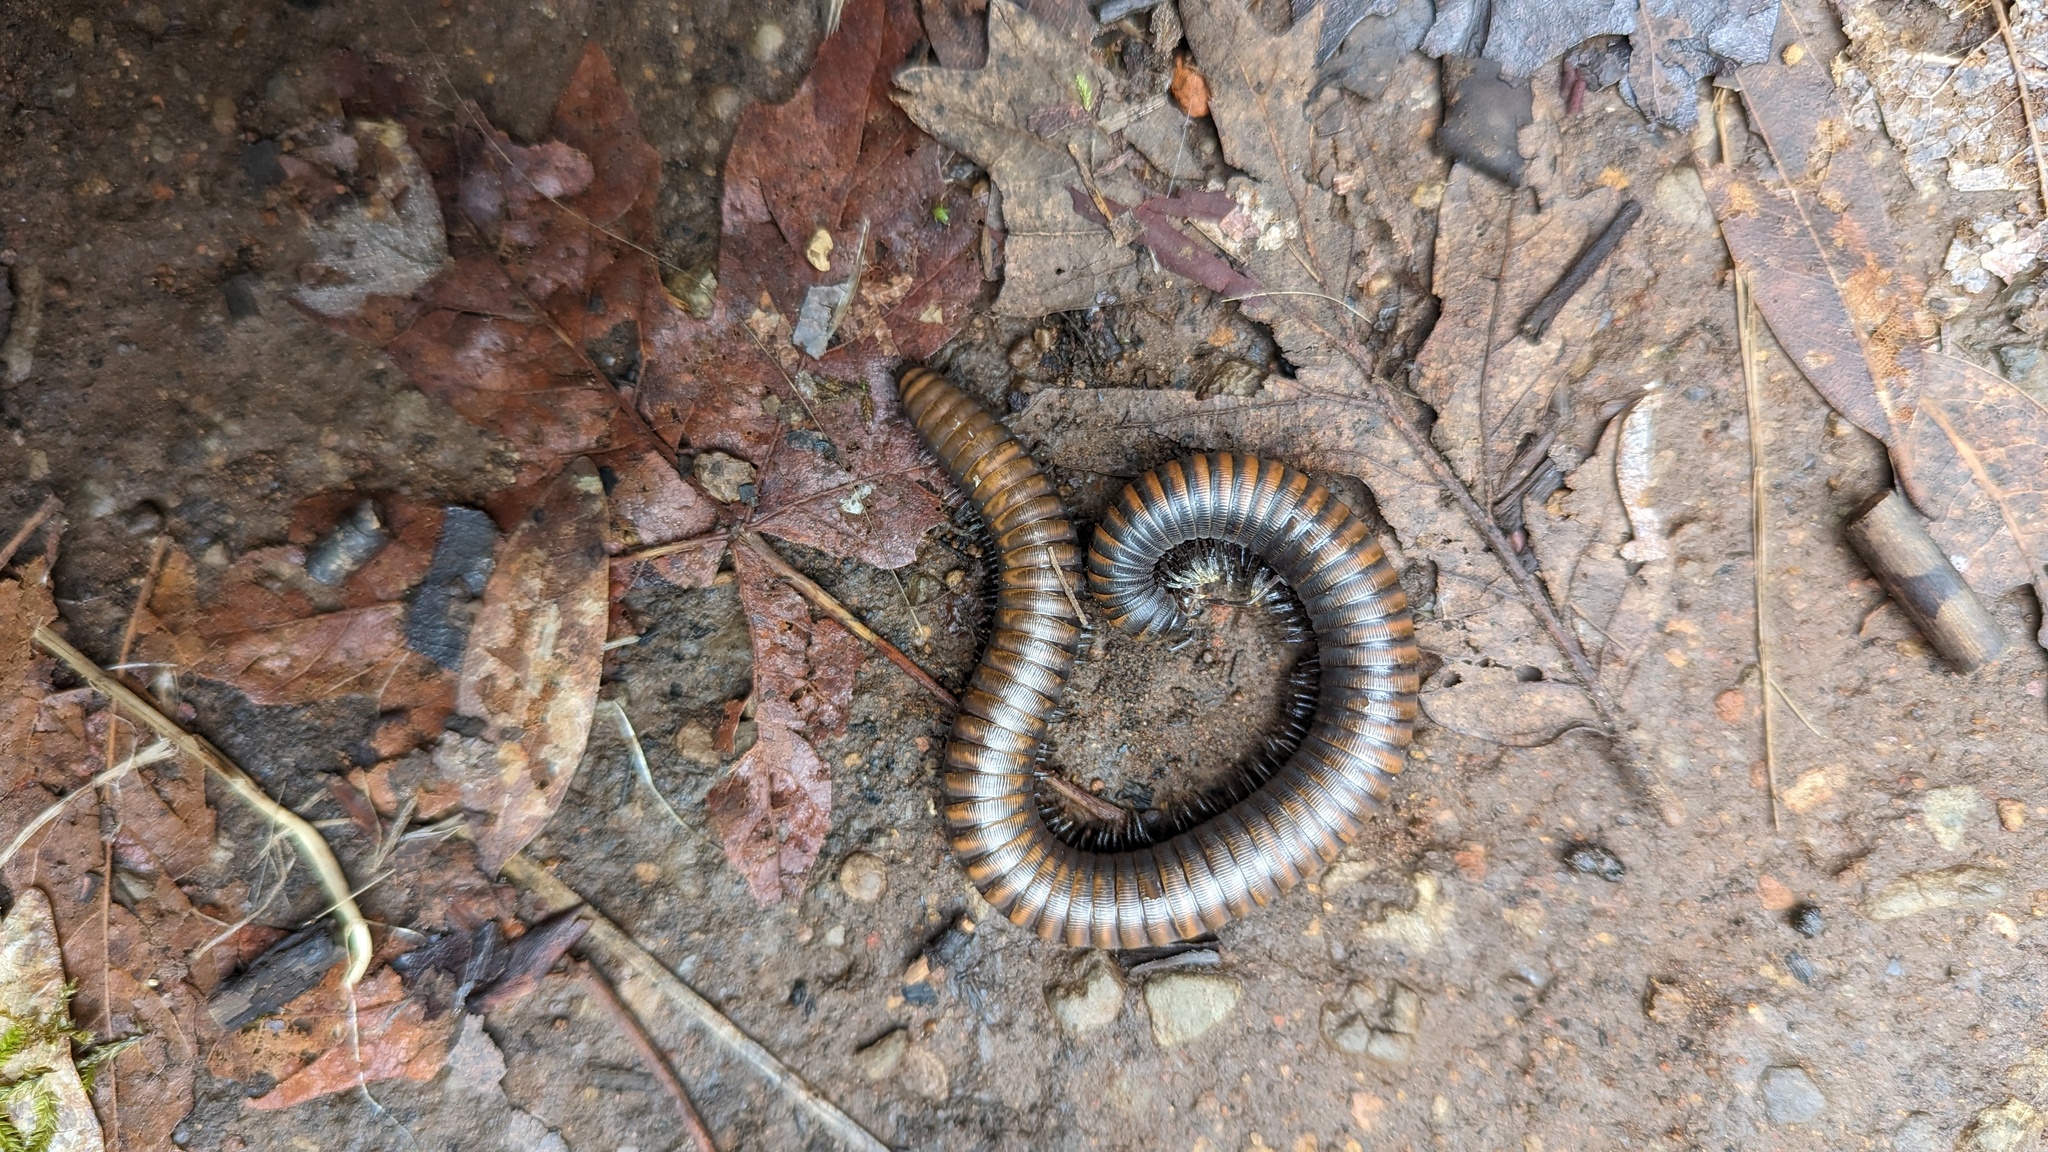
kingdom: Animalia
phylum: Arthropoda
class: Diplopoda
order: Julida
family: Paeromopodidae
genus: Paeromopus
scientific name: Paeromopus angusticeps
